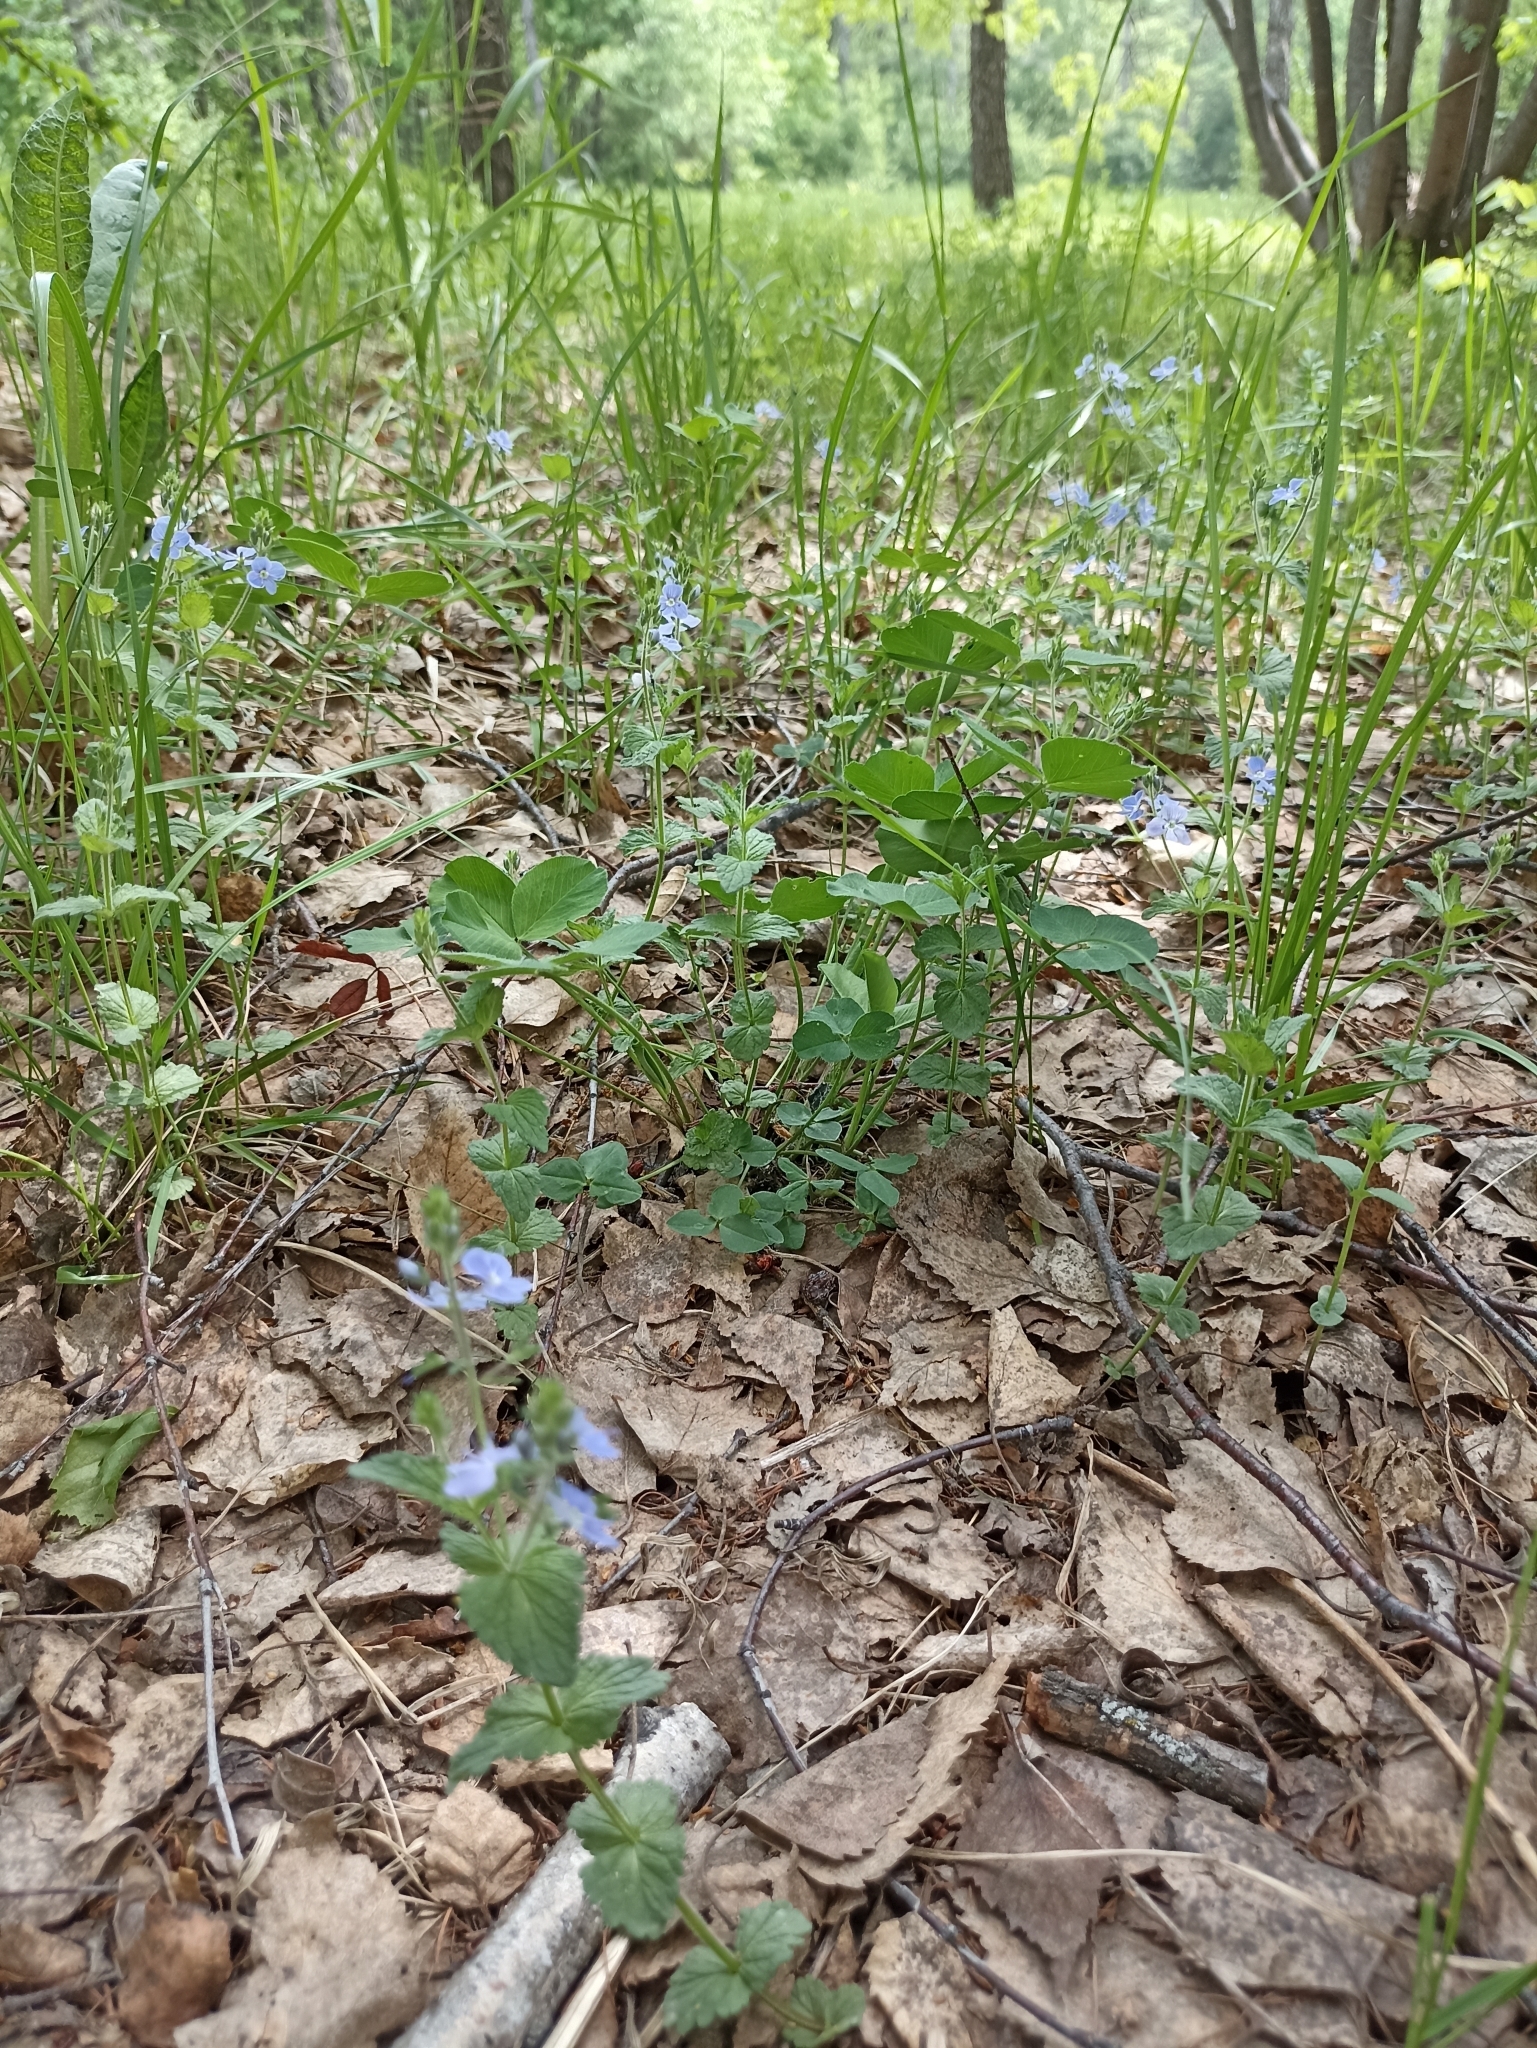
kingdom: Plantae
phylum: Tracheophyta
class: Magnoliopsida
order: Lamiales
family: Plantaginaceae
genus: Veronica
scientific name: Veronica chamaedrys
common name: Germander speedwell
